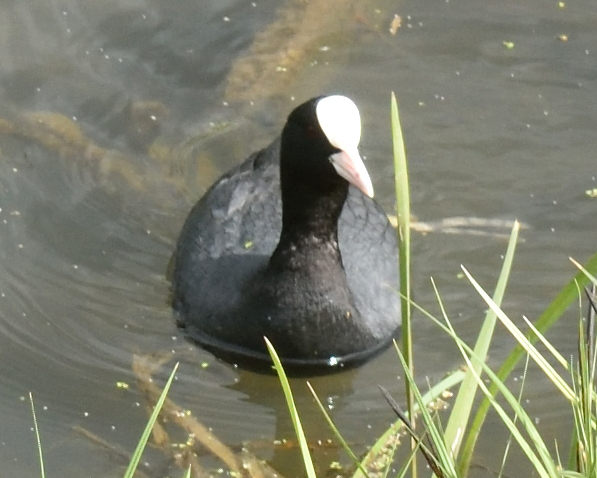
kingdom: Animalia
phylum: Chordata
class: Aves
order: Gruiformes
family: Rallidae
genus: Fulica
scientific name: Fulica atra
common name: Eurasian coot
